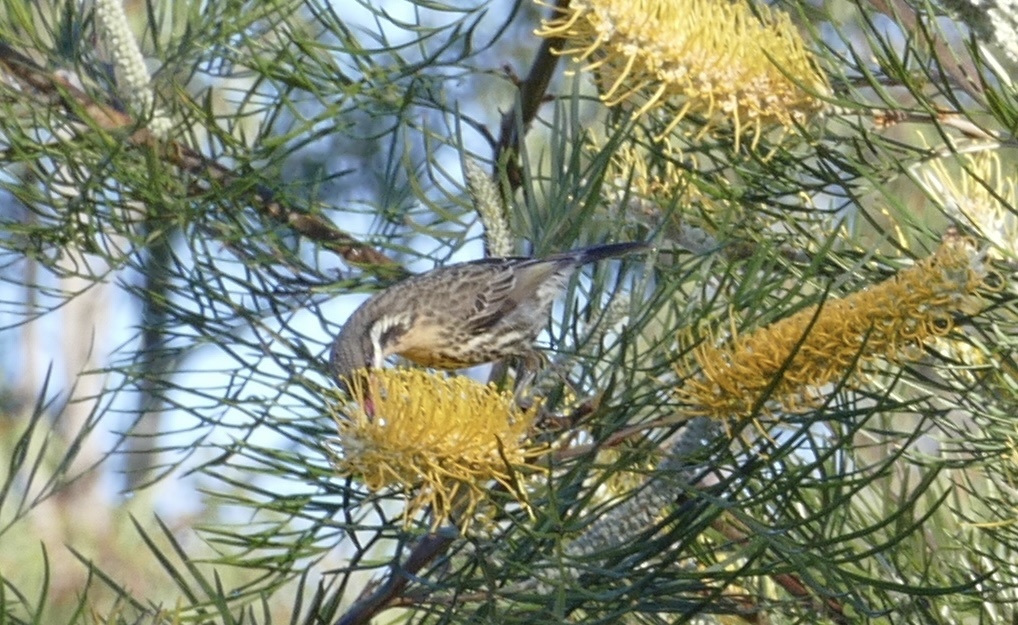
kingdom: Animalia
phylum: Chordata
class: Aves
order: Passeriformes
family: Meliphagidae
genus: Acanthagenys
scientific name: Acanthagenys rufogularis
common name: Spiny-cheeked honeyeater
